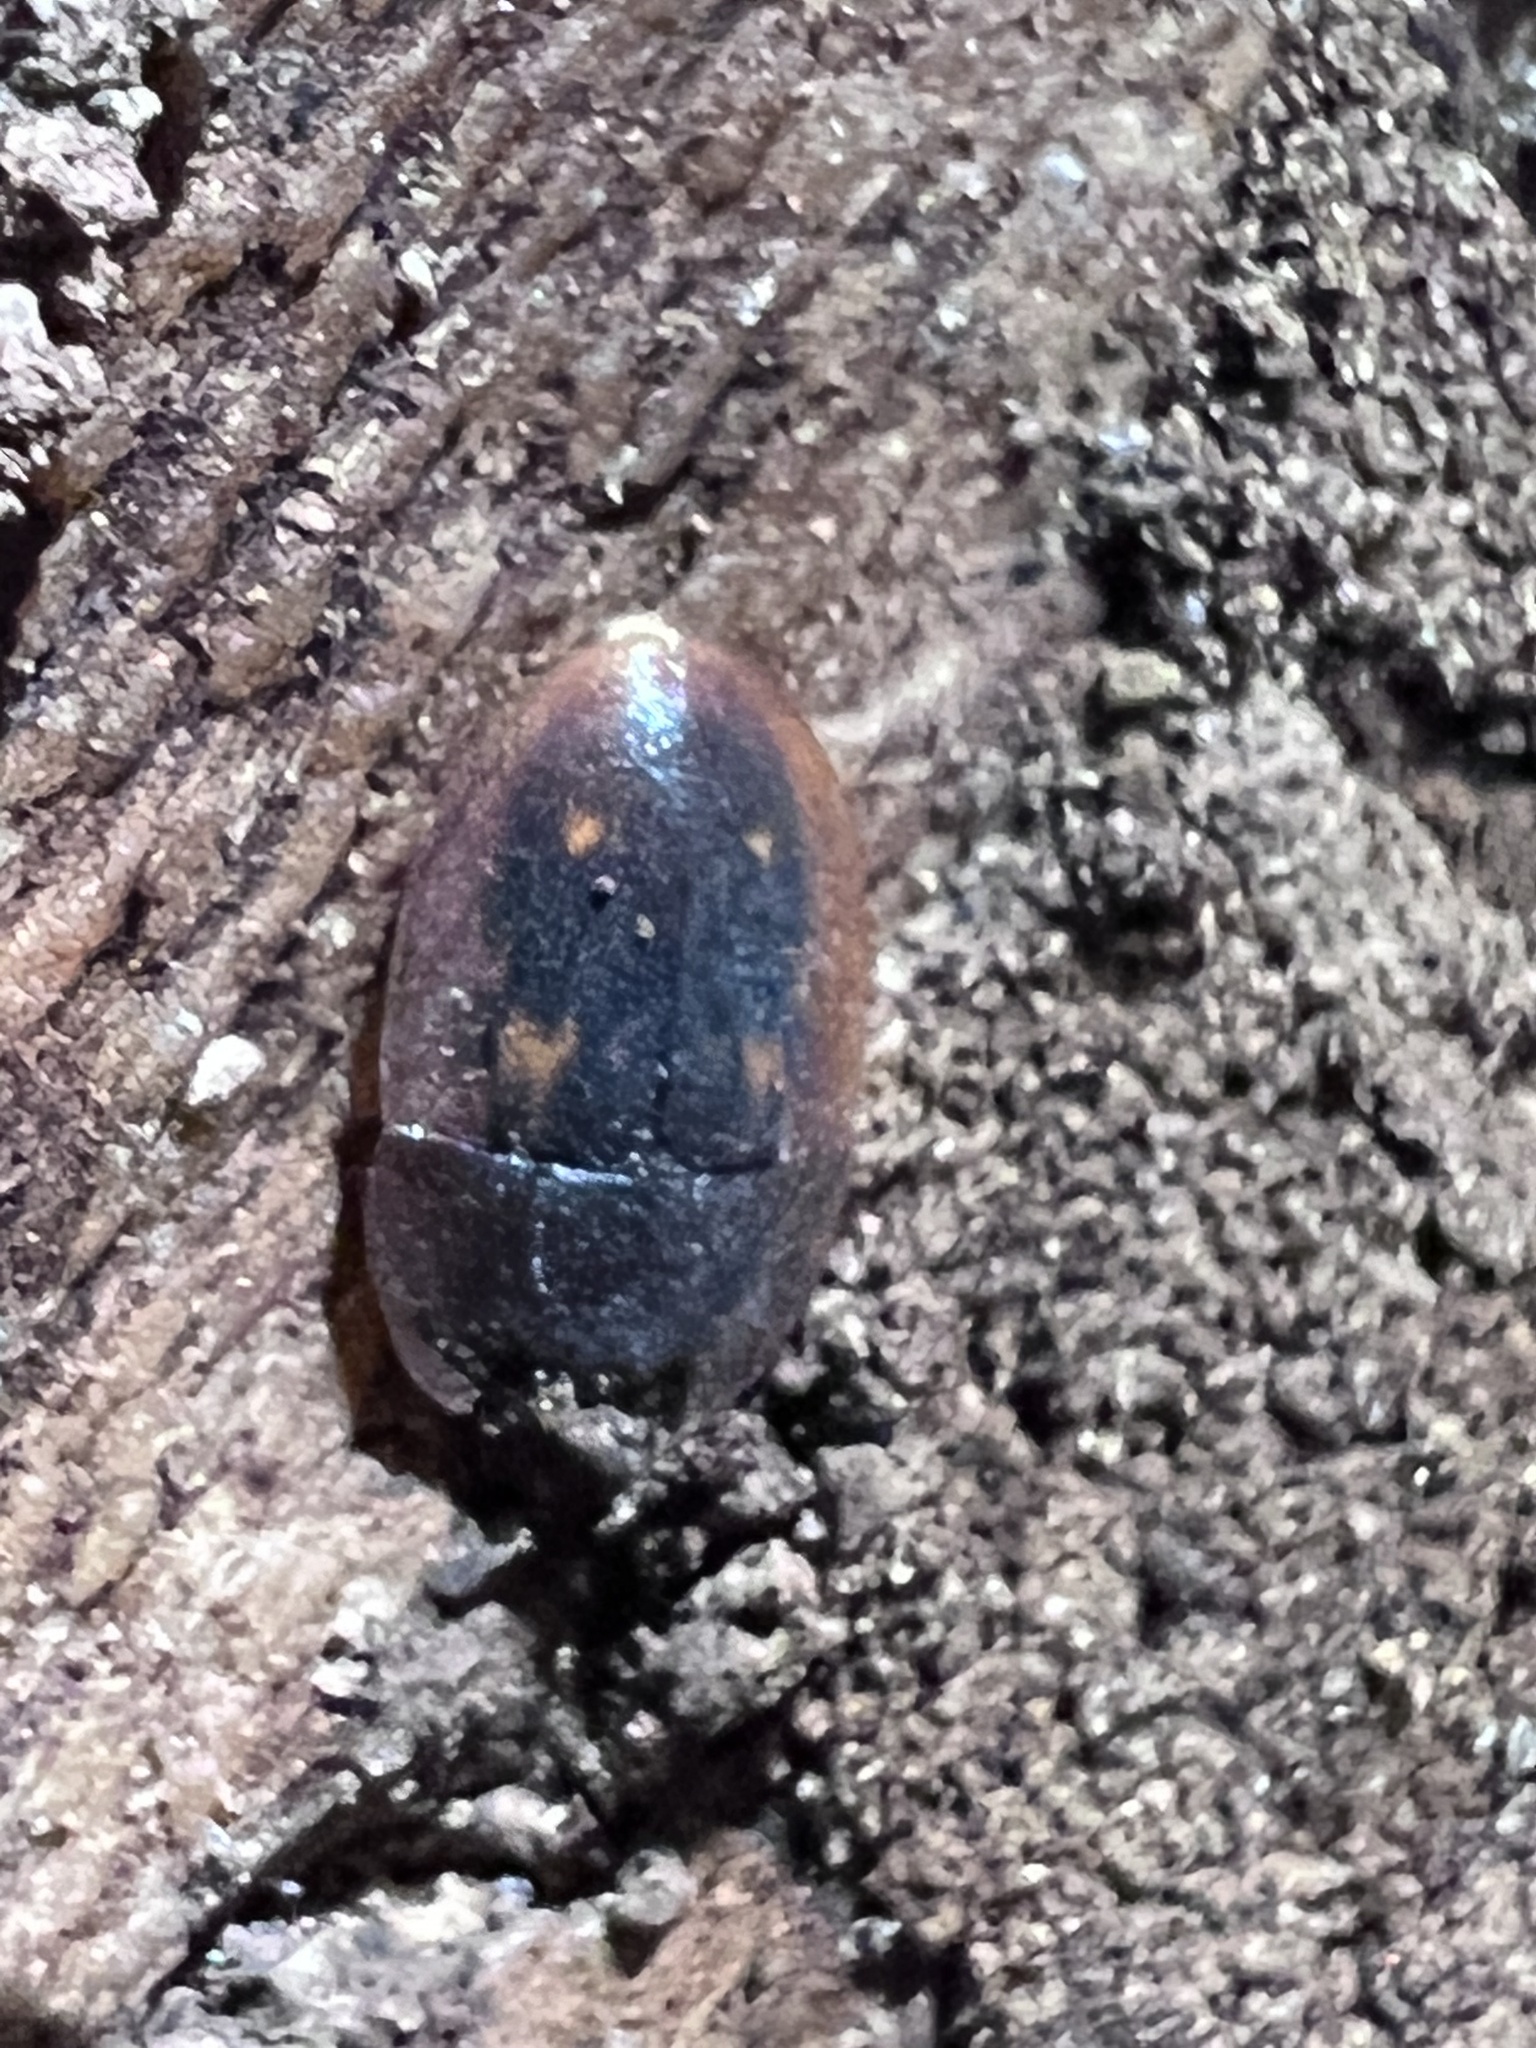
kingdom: Animalia
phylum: Arthropoda
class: Insecta
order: Coleoptera
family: Nitidulidae
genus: Prometopia
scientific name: Prometopia sexmaculata
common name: Six-spotted sap-feeding beetle
